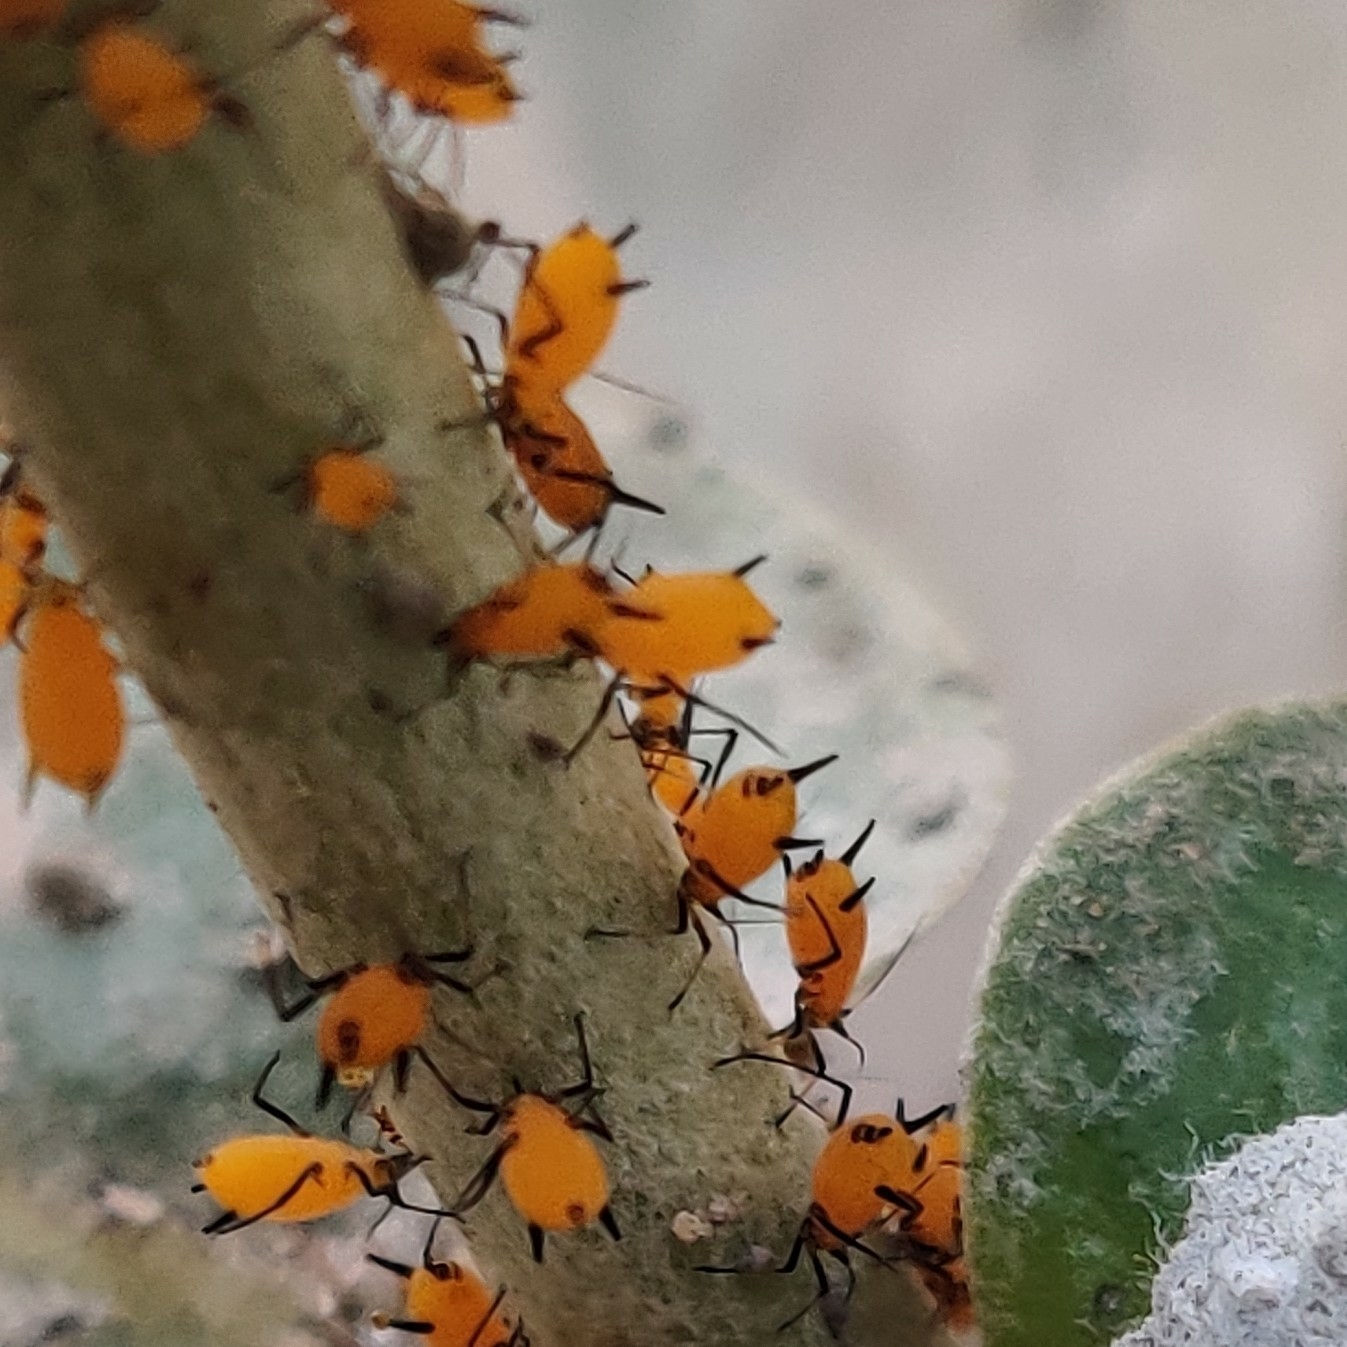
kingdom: Animalia
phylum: Arthropoda
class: Insecta
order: Hemiptera
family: Aphididae
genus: Aphis
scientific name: Aphis nerii
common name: Oleander aphid
